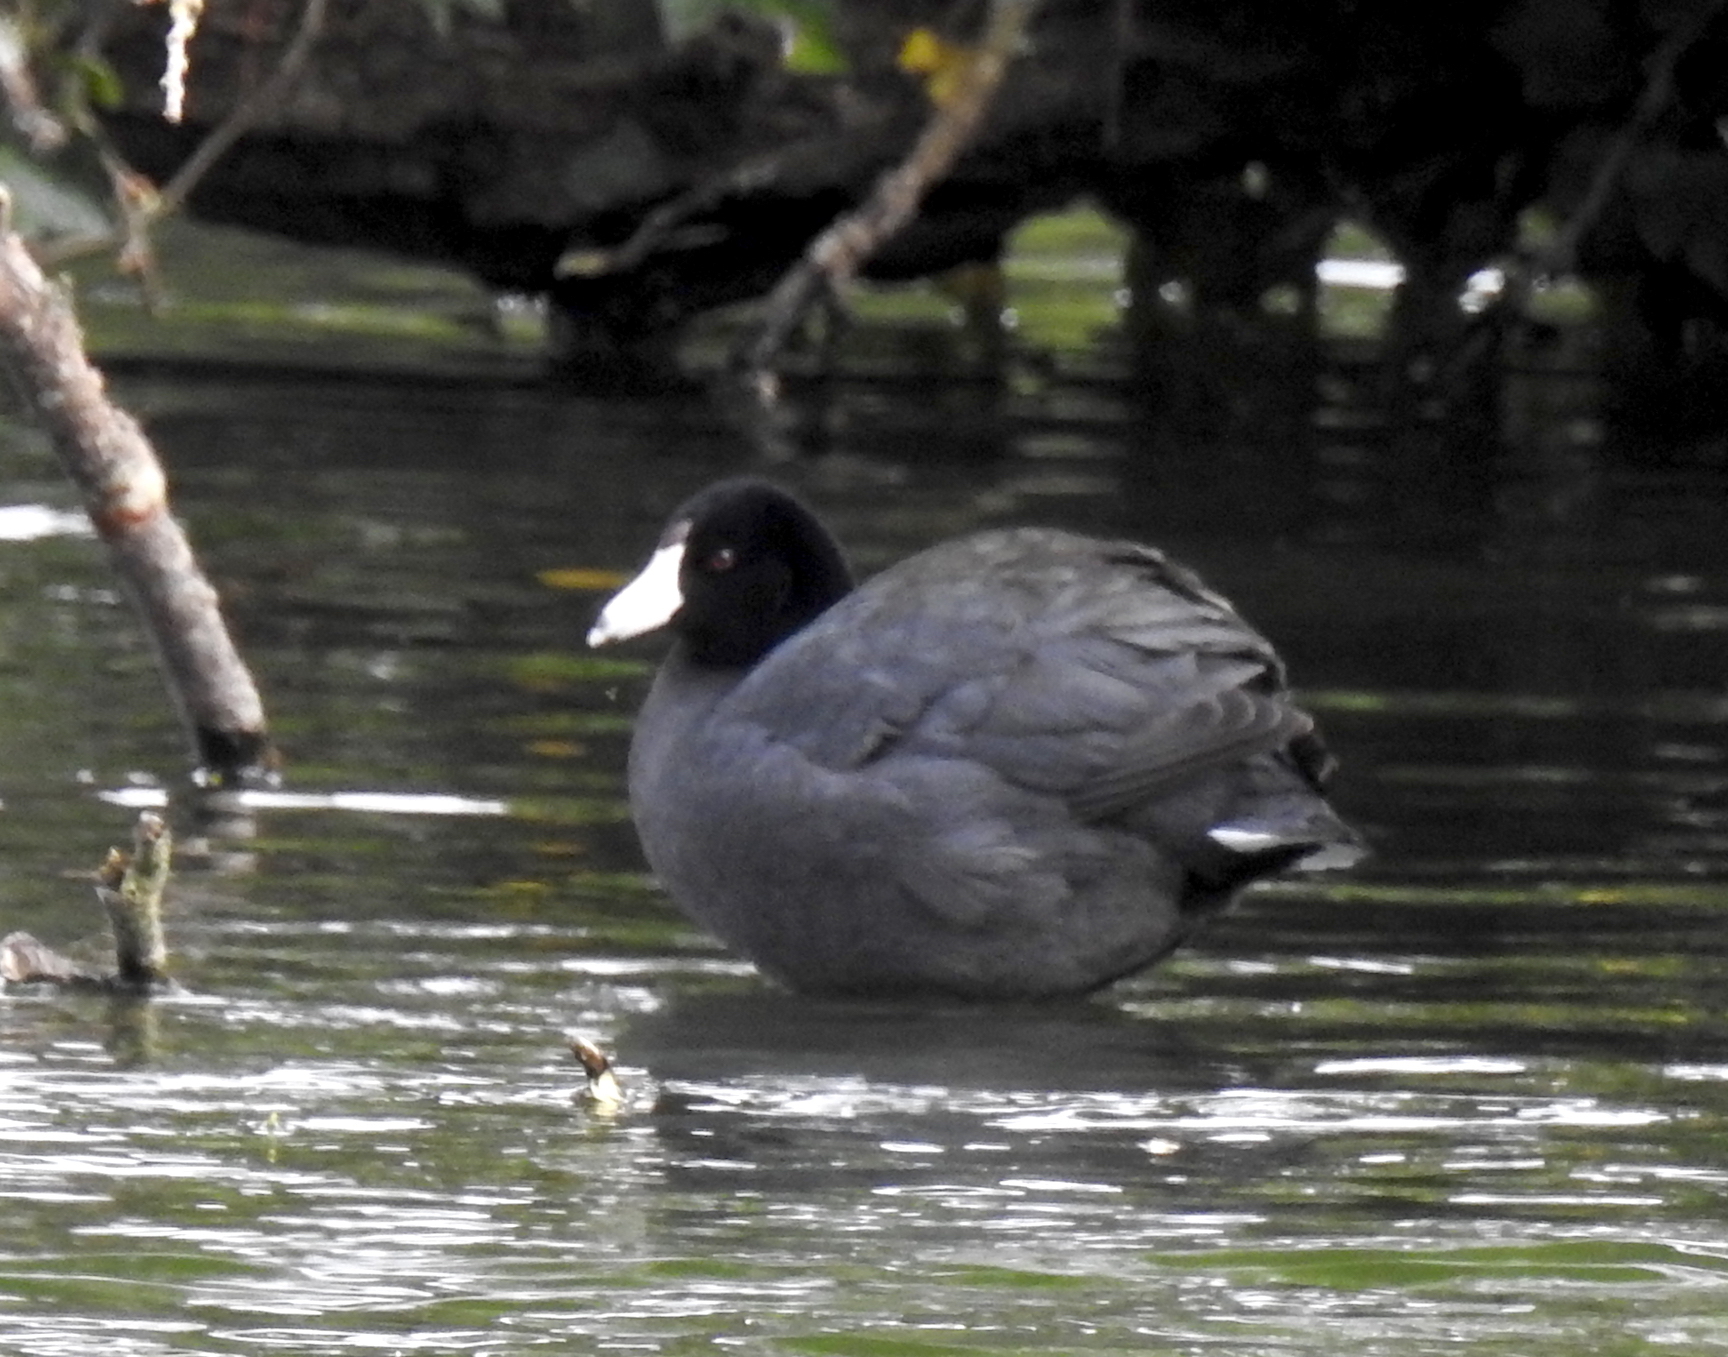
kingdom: Animalia
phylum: Chordata
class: Aves
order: Gruiformes
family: Rallidae
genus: Fulica
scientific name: Fulica americana
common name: American coot
